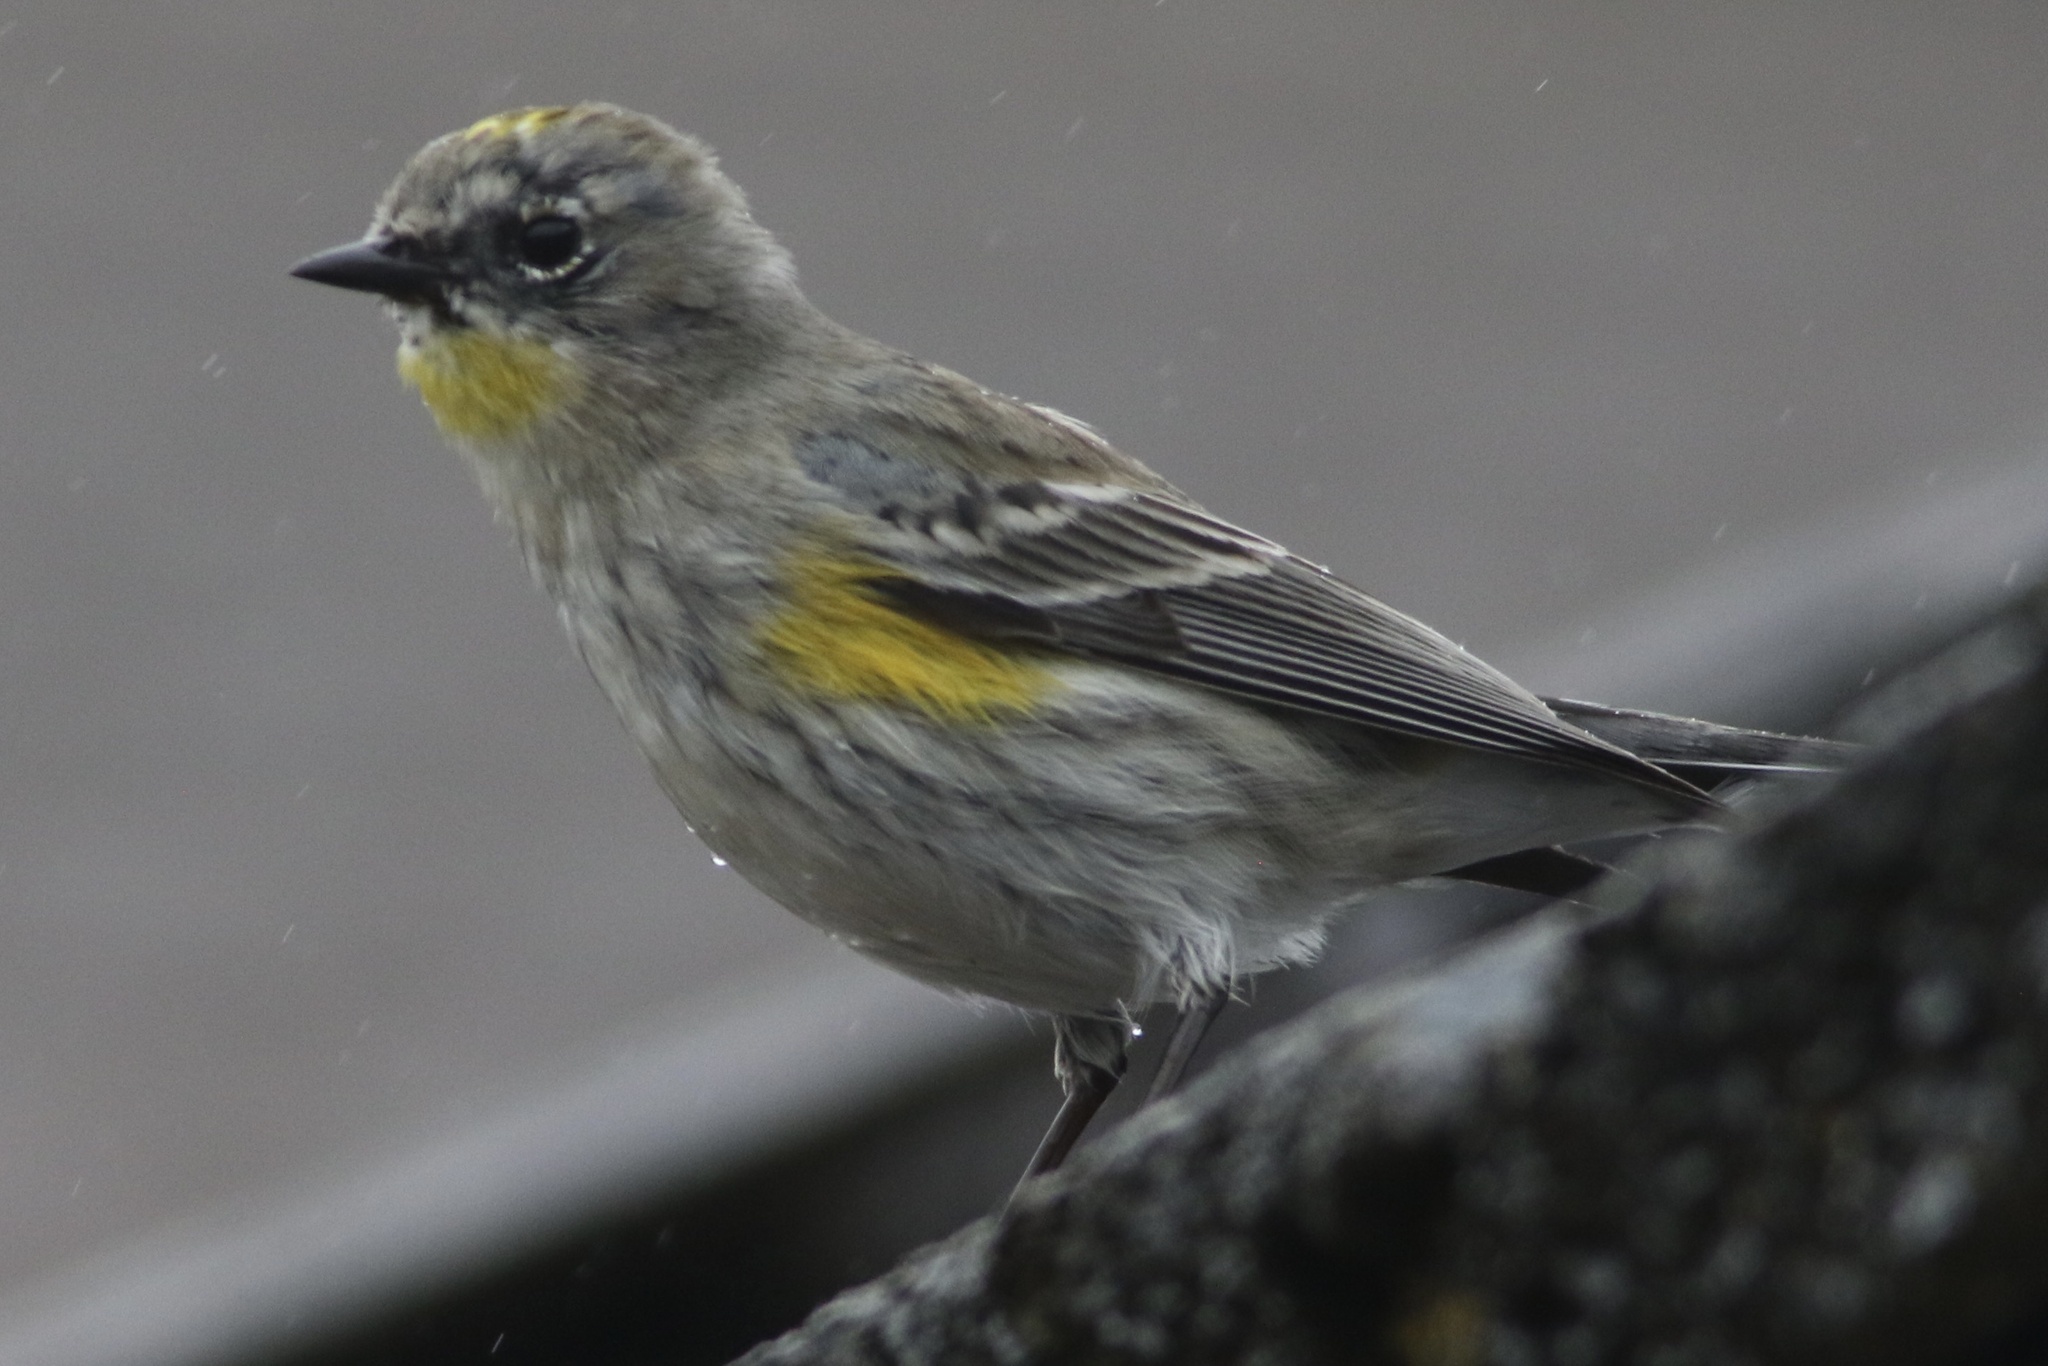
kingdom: Animalia
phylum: Chordata
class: Aves
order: Passeriformes
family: Parulidae
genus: Setophaga
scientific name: Setophaga coronata
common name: Myrtle warbler
